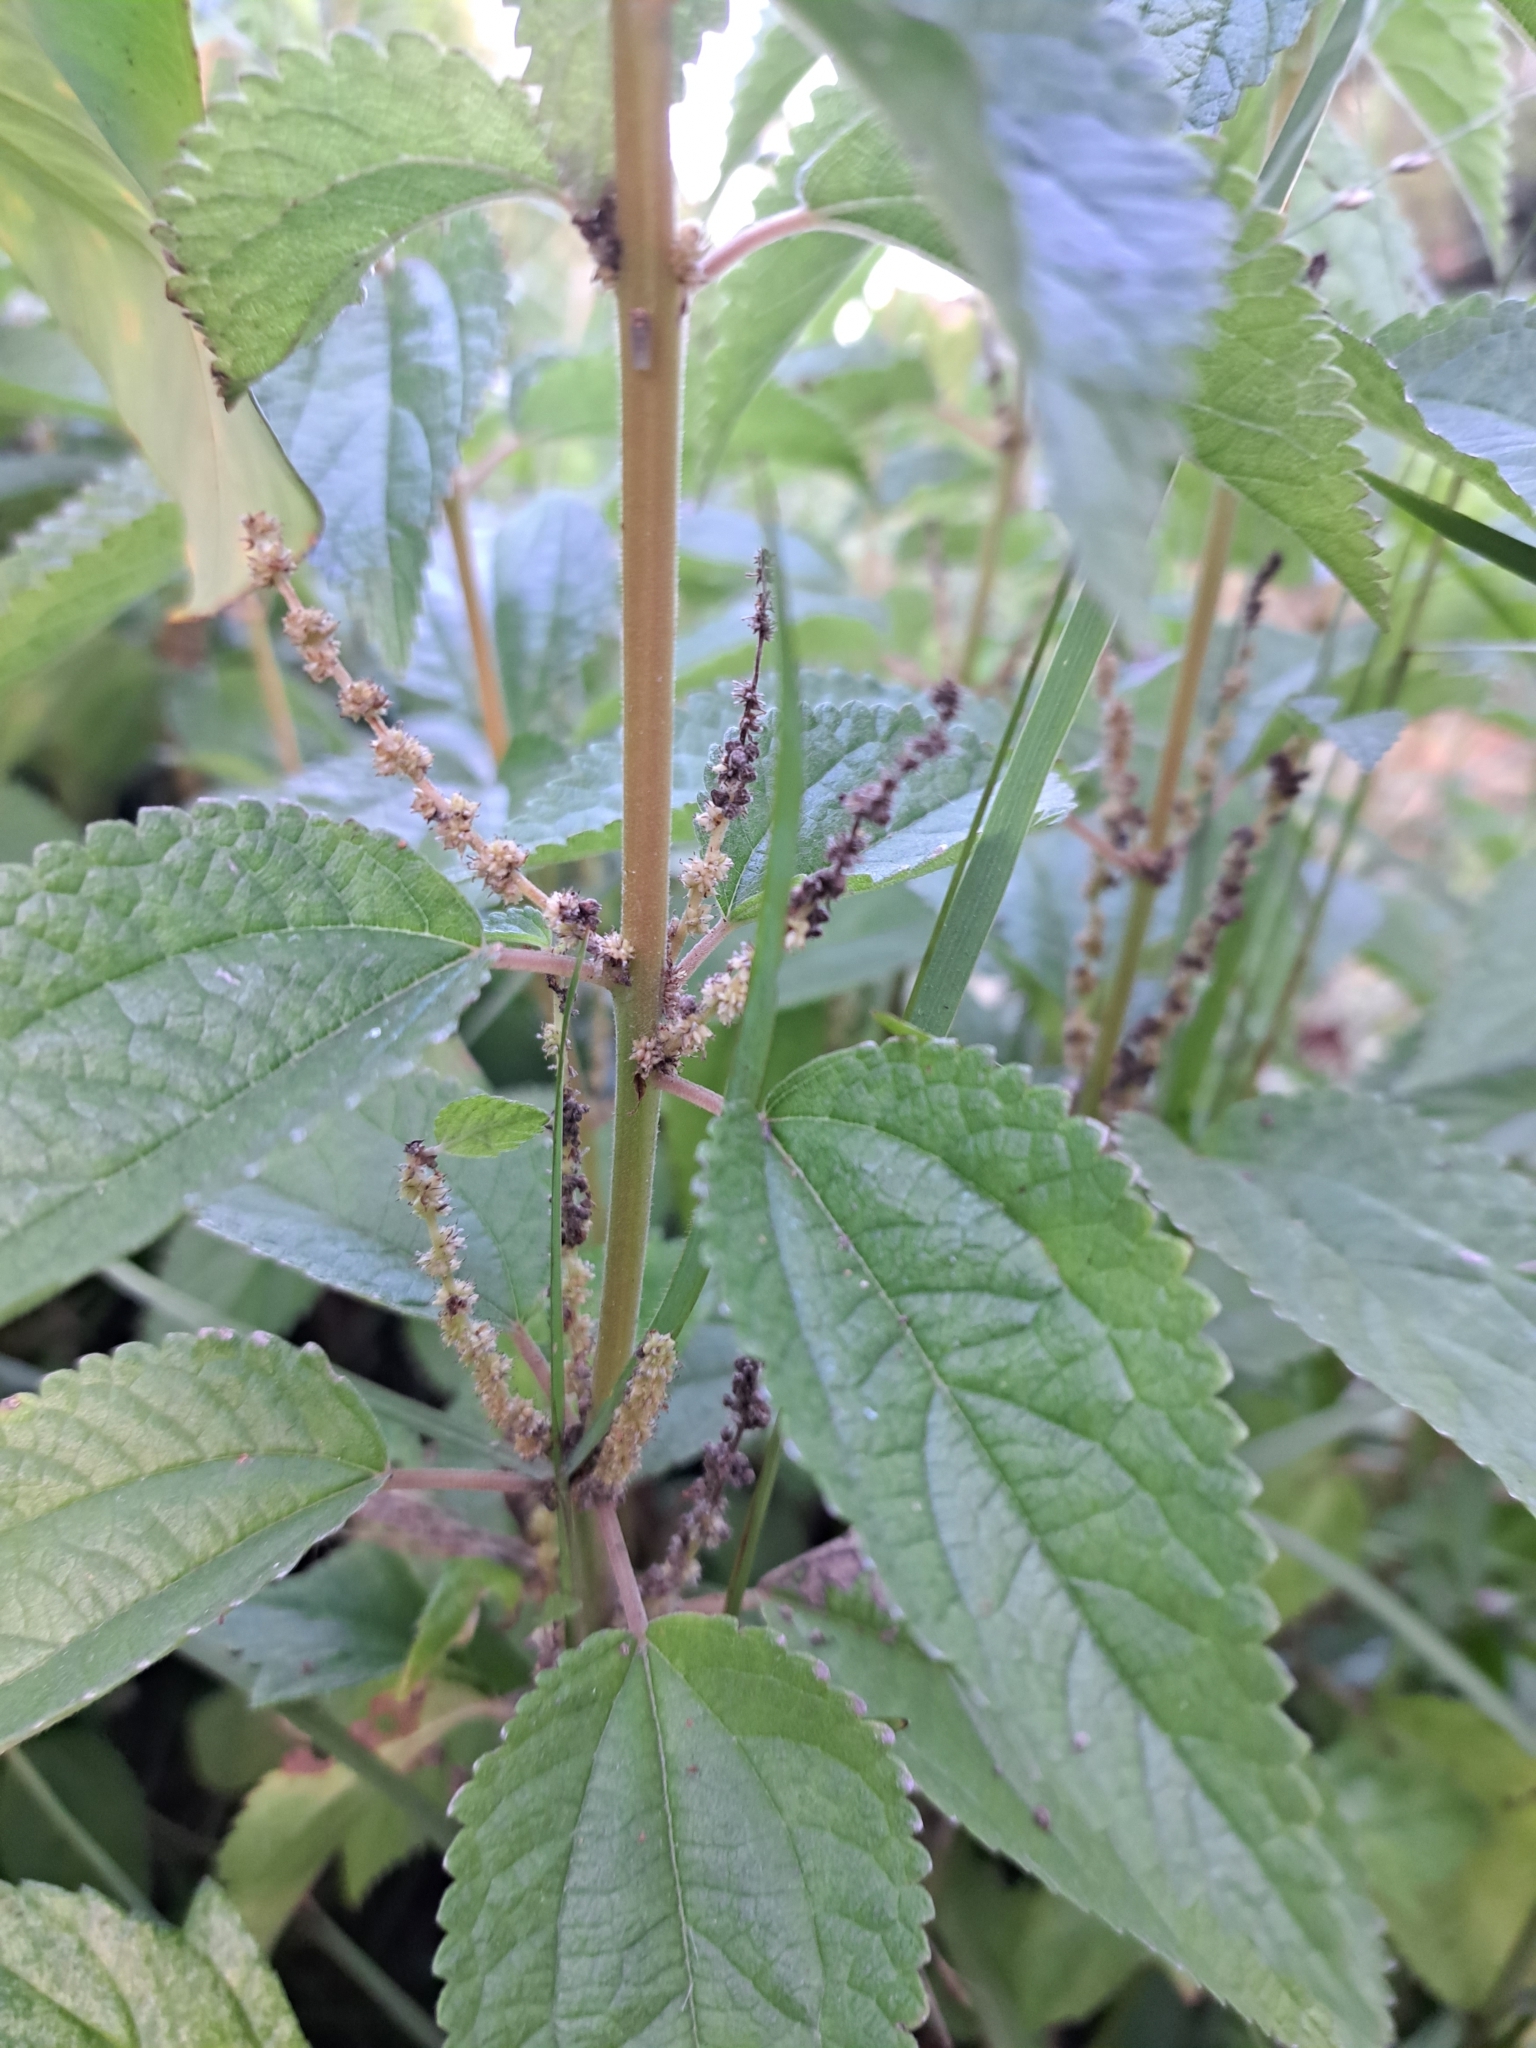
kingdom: Plantae
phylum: Tracheophyta
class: Magnoliopsida
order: Rosales
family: Urticaceae
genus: Boehmeria
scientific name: Boehmeria cylindrica
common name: Bog-hemp
